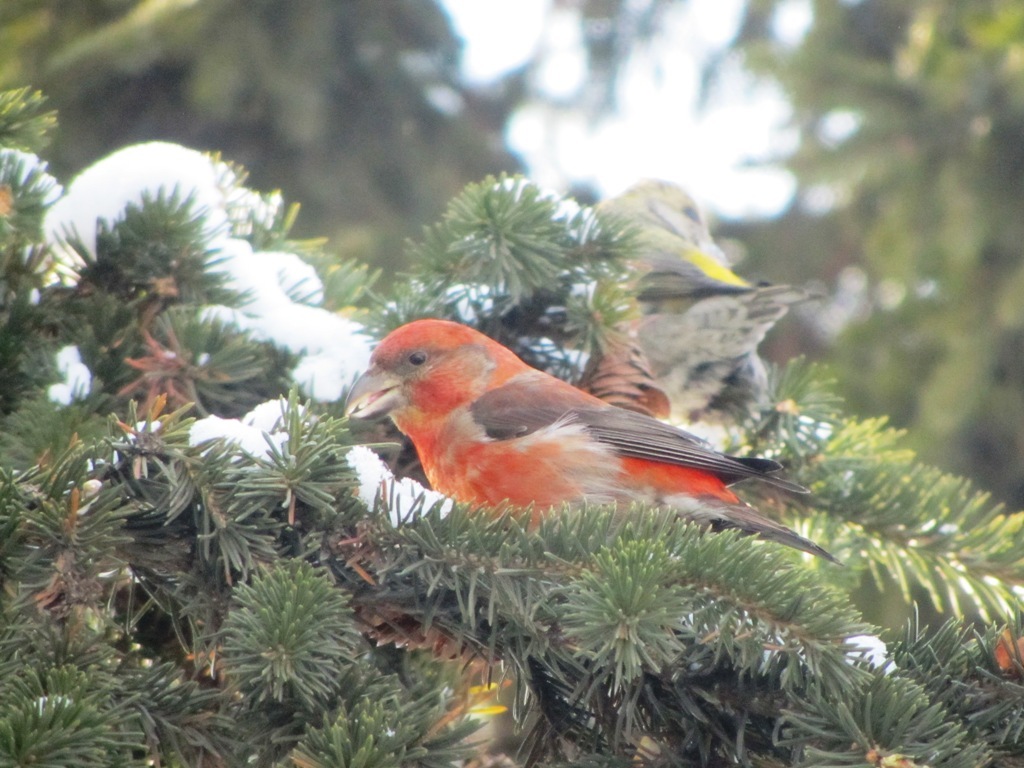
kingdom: Animalia
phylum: Chordata
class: Aves
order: Passeriformes
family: Fringillidae
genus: Loxia
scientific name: Loxia curvirostra
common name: Red crossbill
